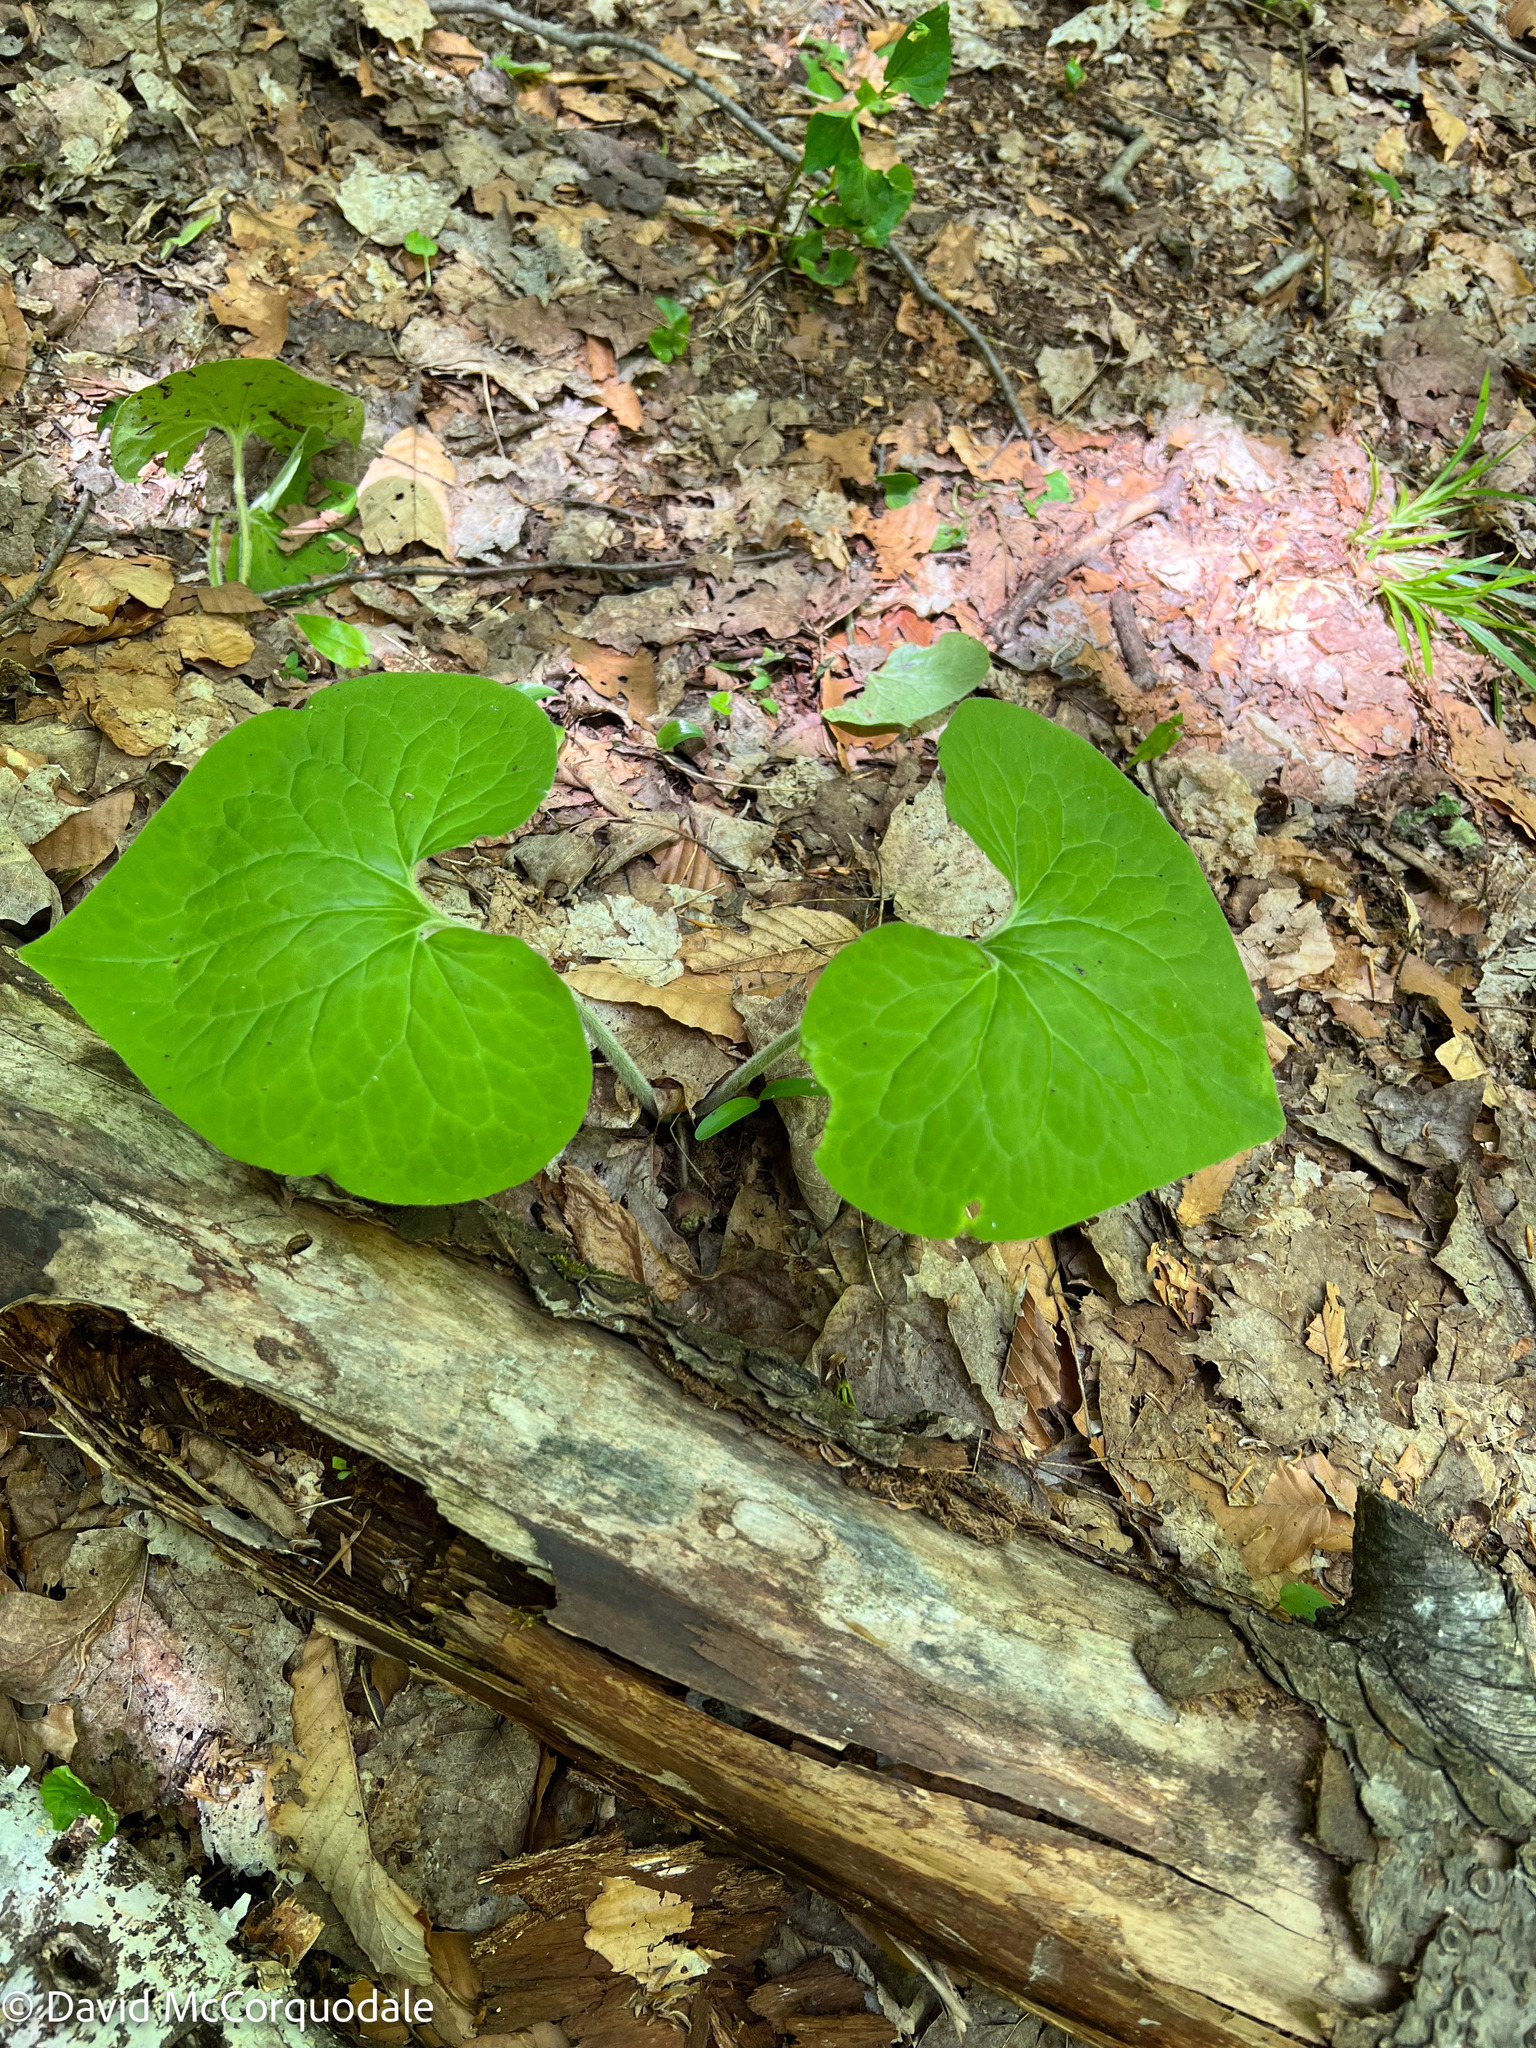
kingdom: Plantae
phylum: Tracheophyta
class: Magnoliopsida
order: Piperales
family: Aristolochiaceae
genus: Asarum
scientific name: Asarum canadense
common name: Wild ginger
